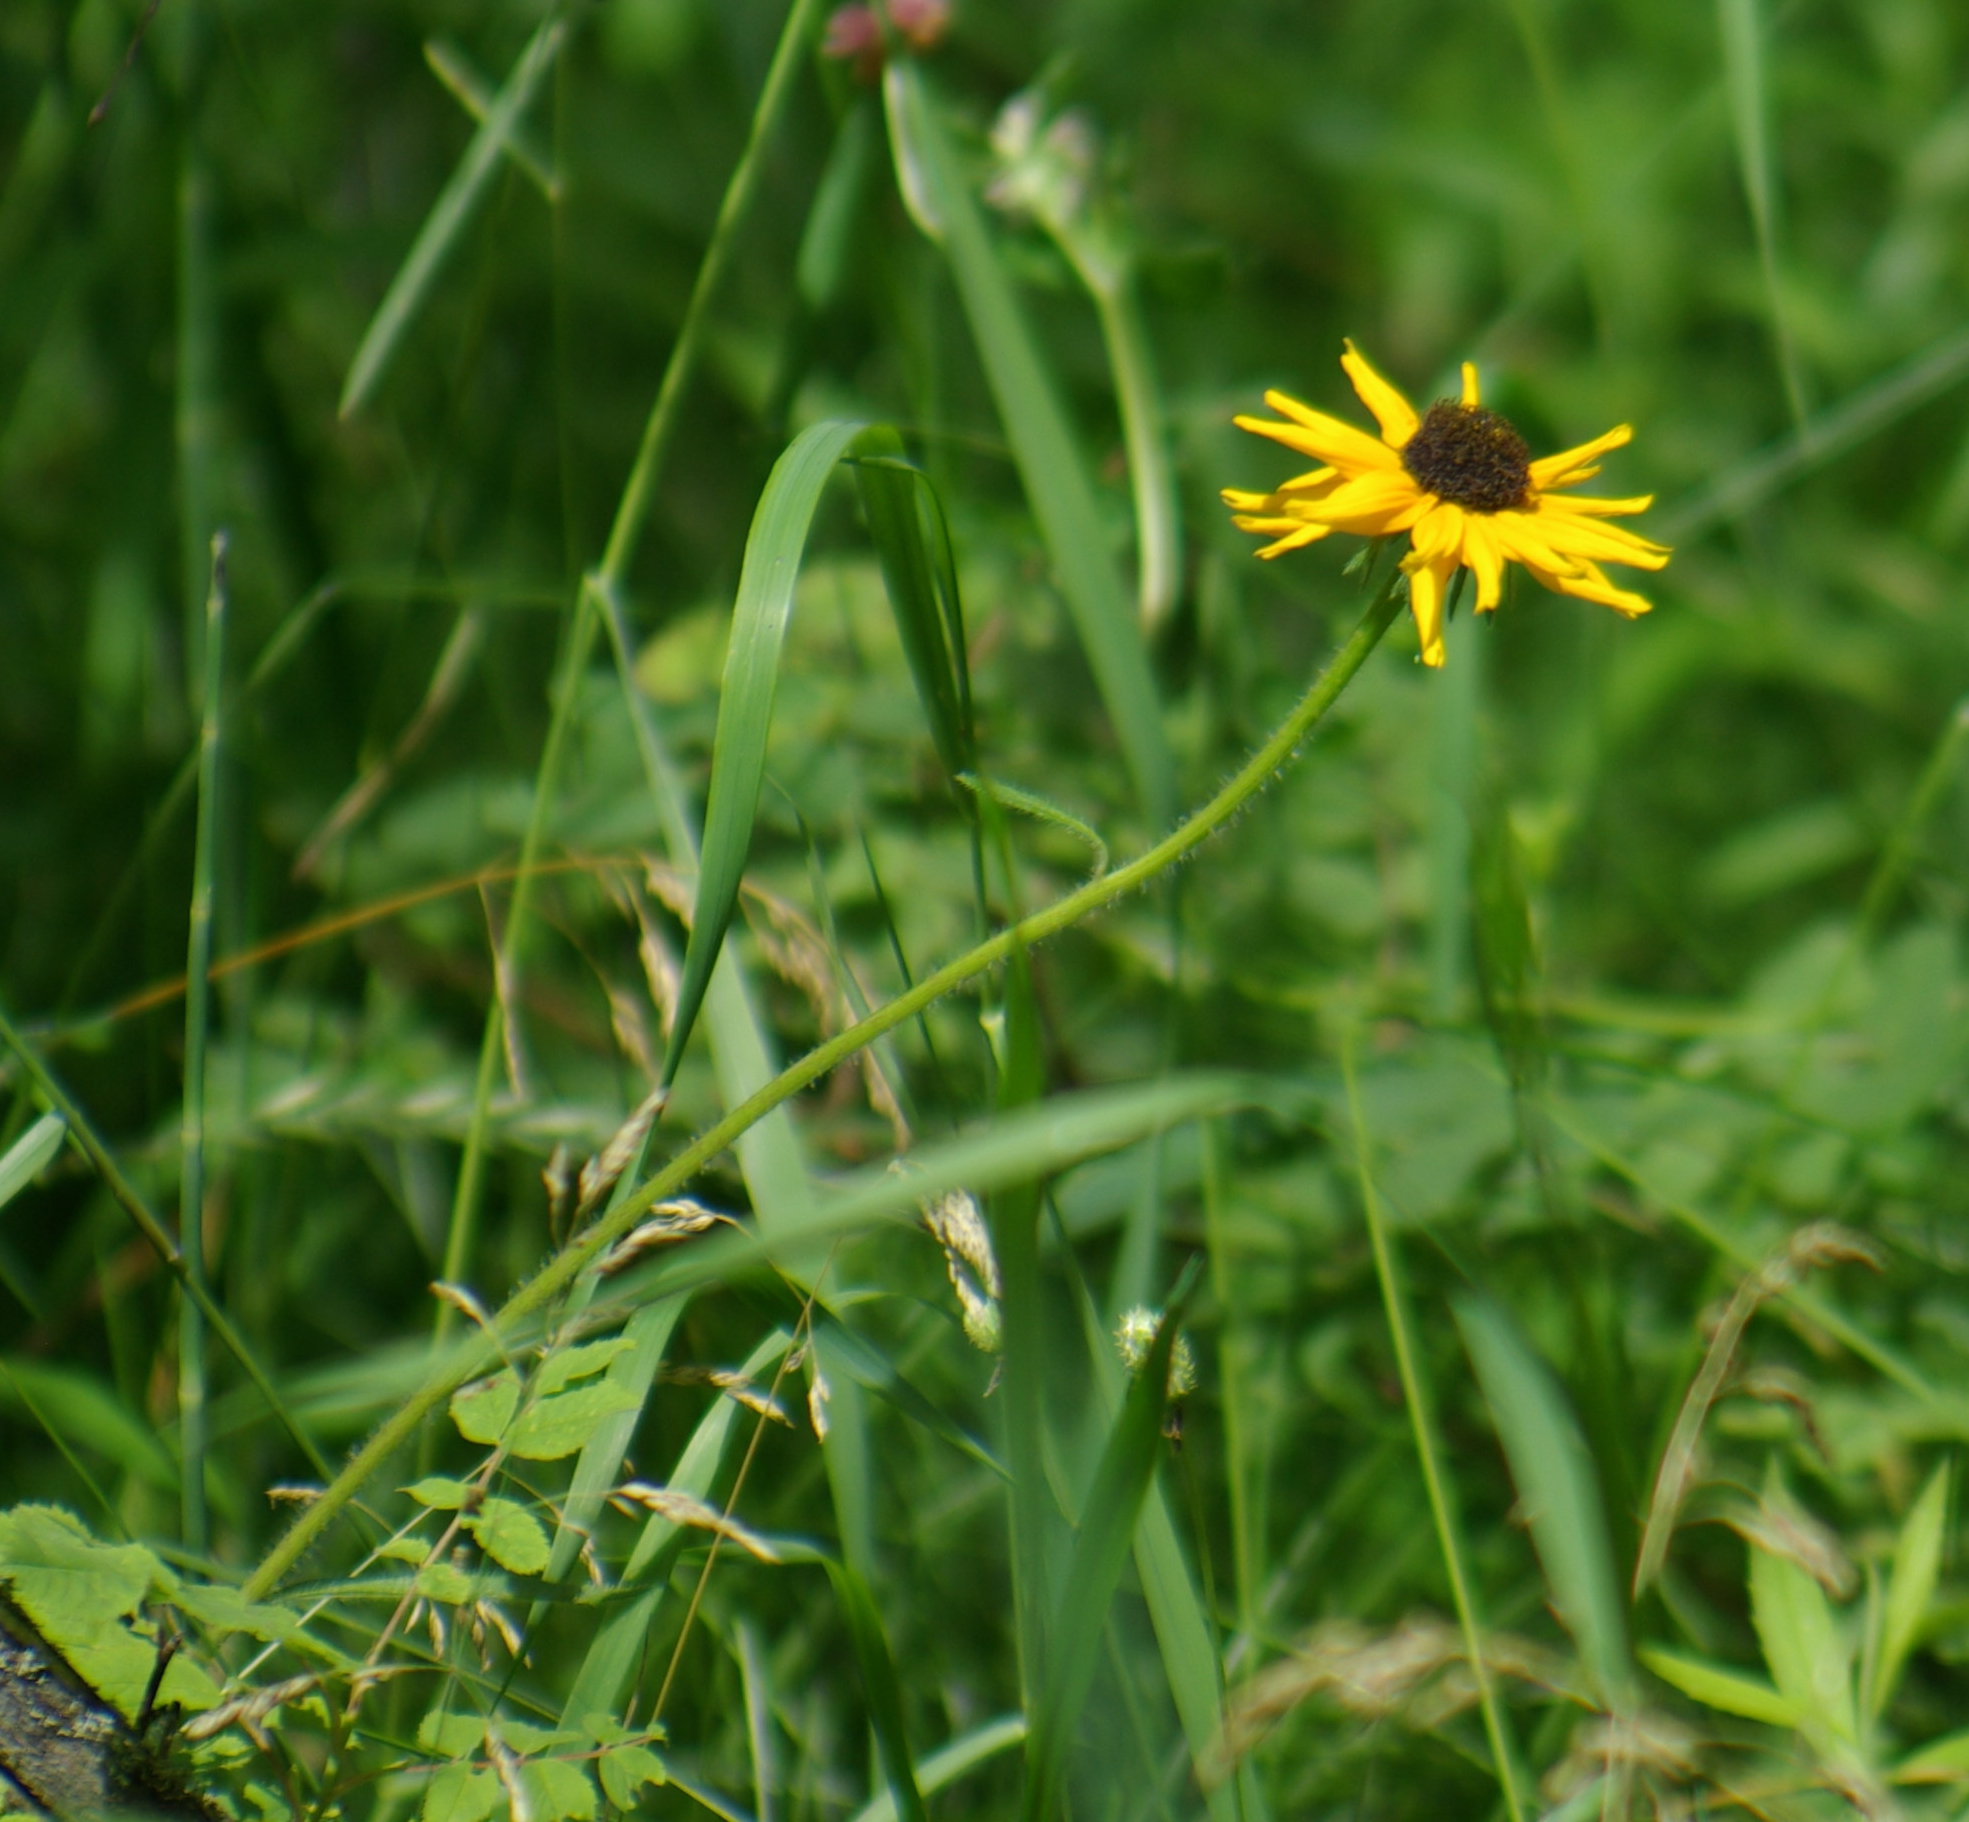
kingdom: Plantae
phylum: Tracheophyta
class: Magnoliopsida
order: Asterales
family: Asteraceae
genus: Rudbeckia
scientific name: Rudbeckia hirta
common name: Black-eyed-susan
